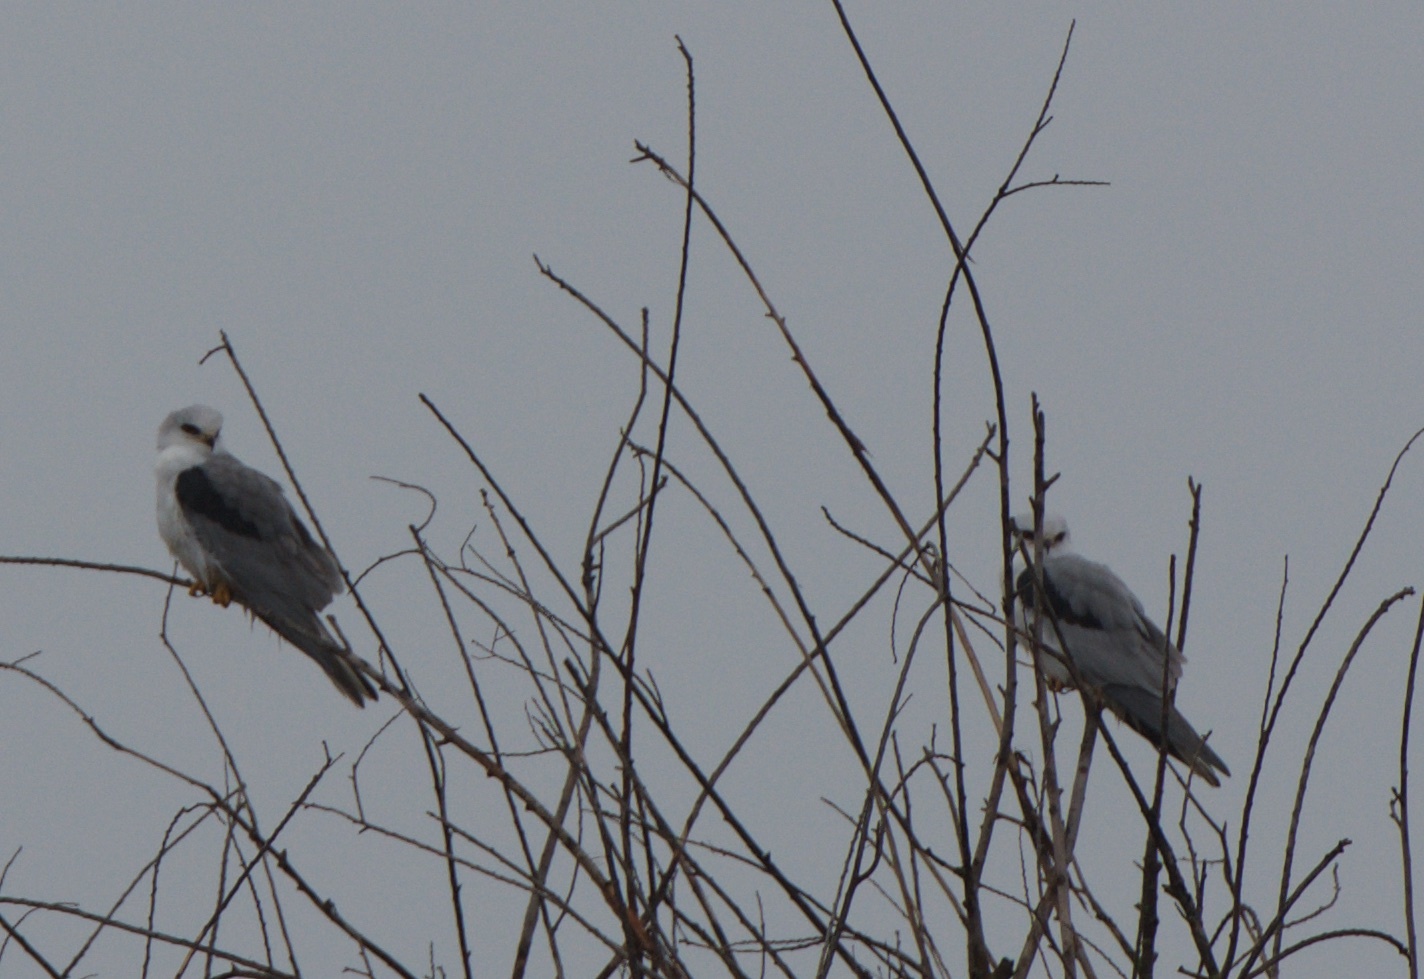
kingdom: Animalia
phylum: Chordata
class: Aves
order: Accipitriformes
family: Accipitridae
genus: Elanus
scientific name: Elanus leucurus
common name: White-tailed kite
